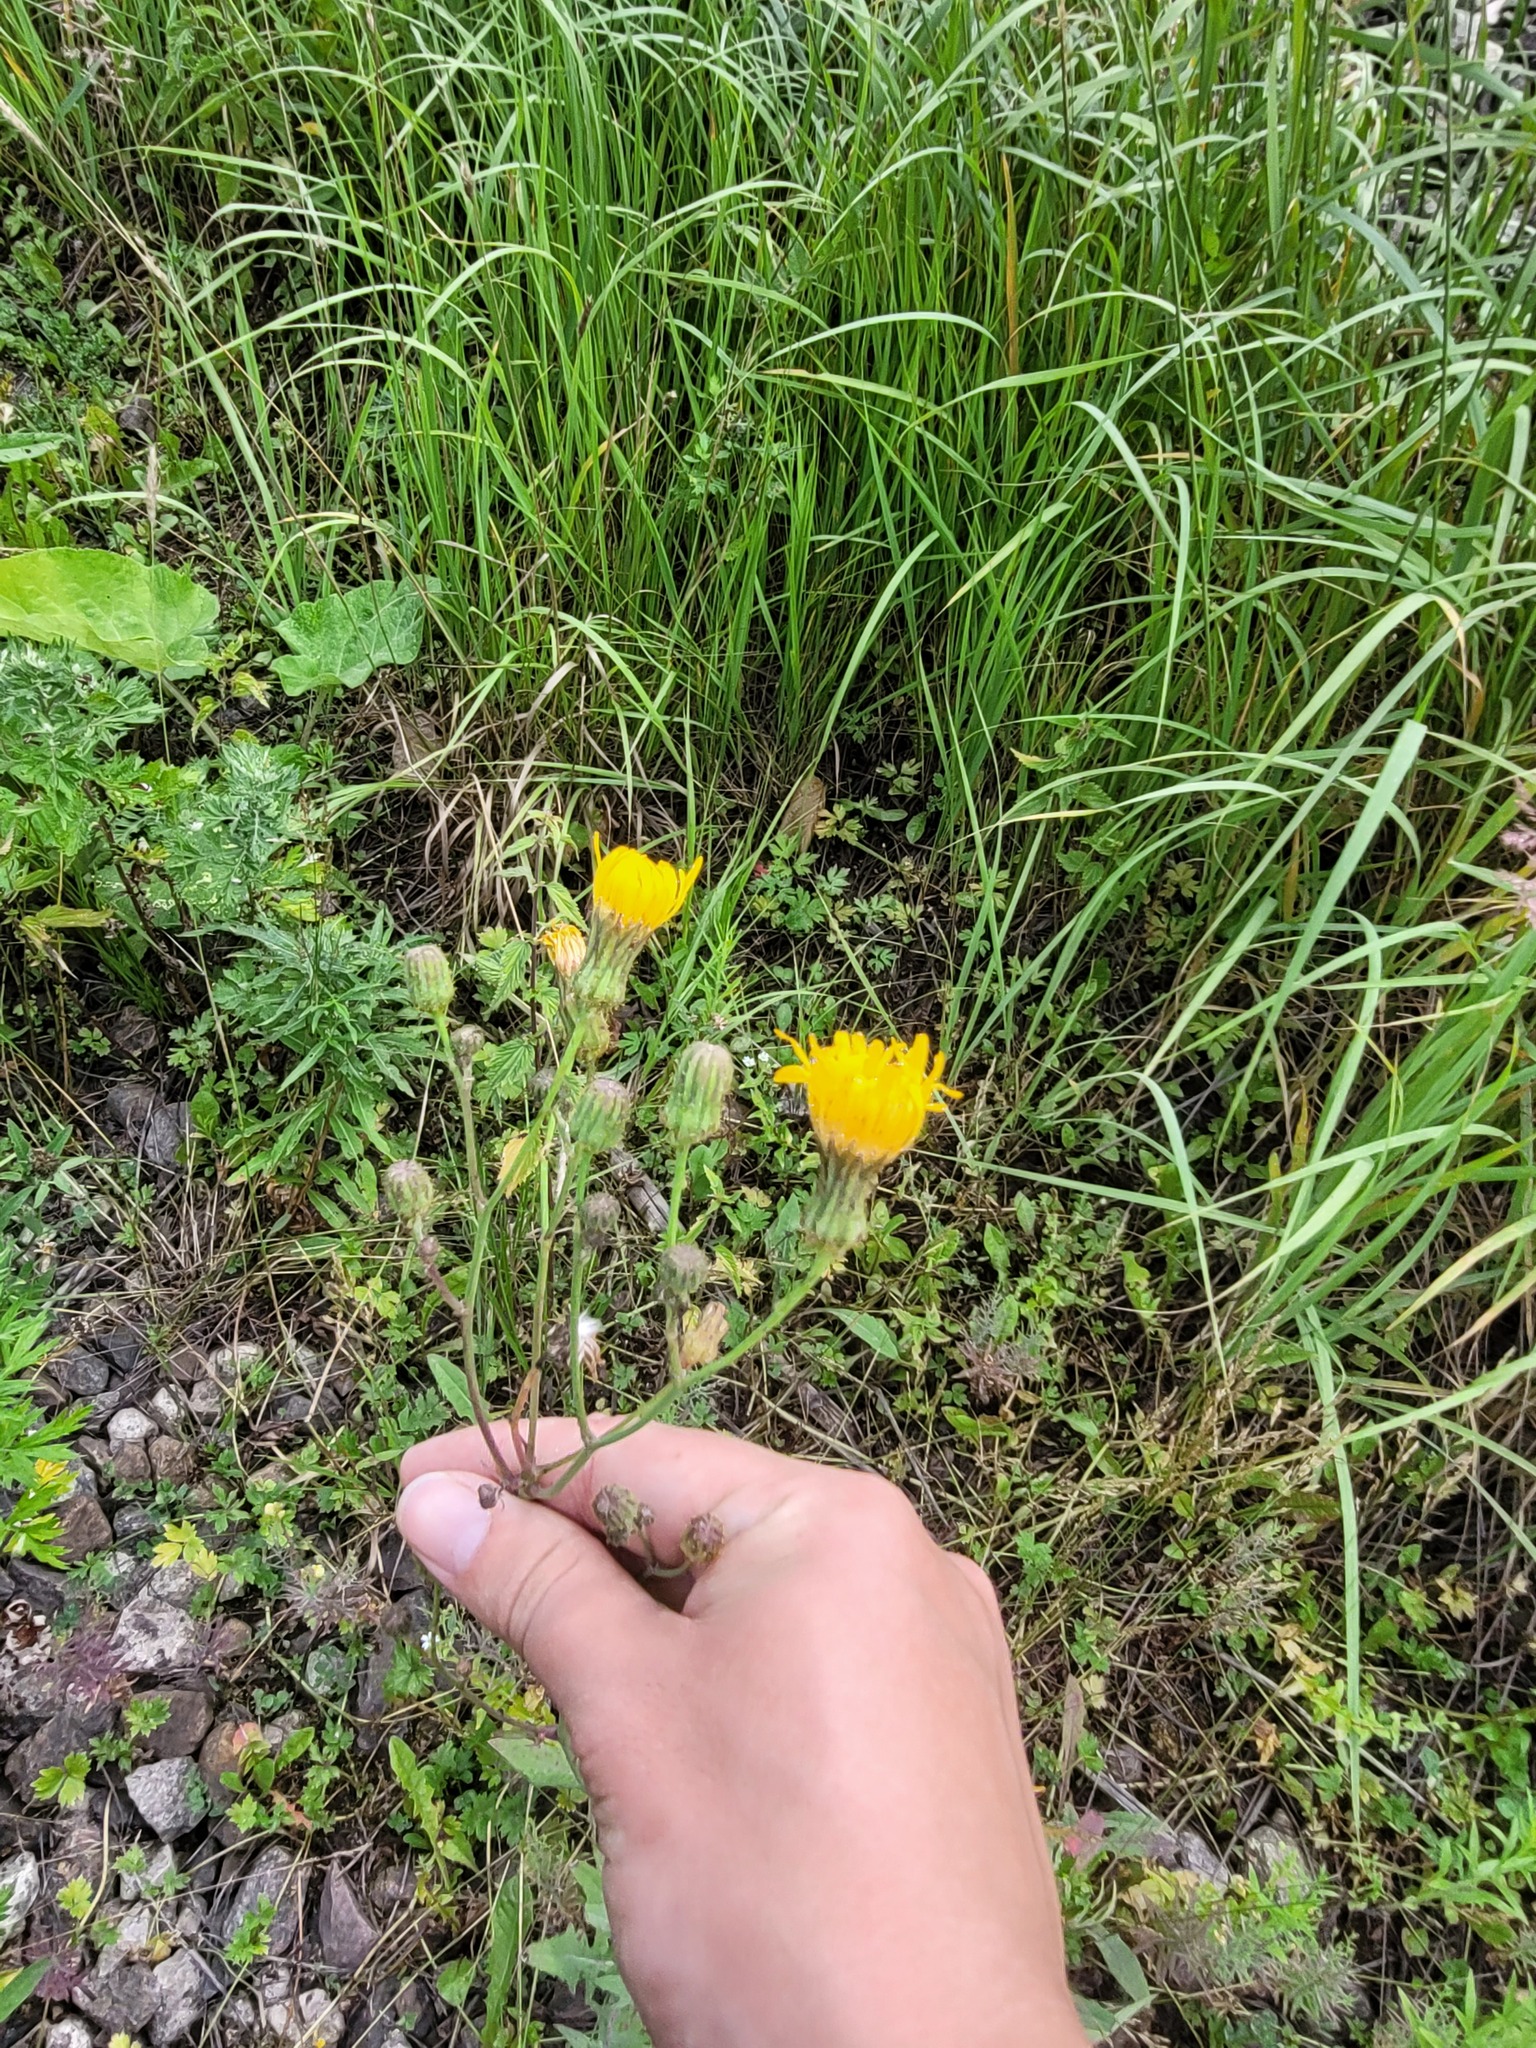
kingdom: Plantae
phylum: Tracheophyta
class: Magnoliopsida
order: Asterales
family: Asteraceae
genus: Sonchus
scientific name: Sonchus arvensis
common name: Perennial sow-thistle
